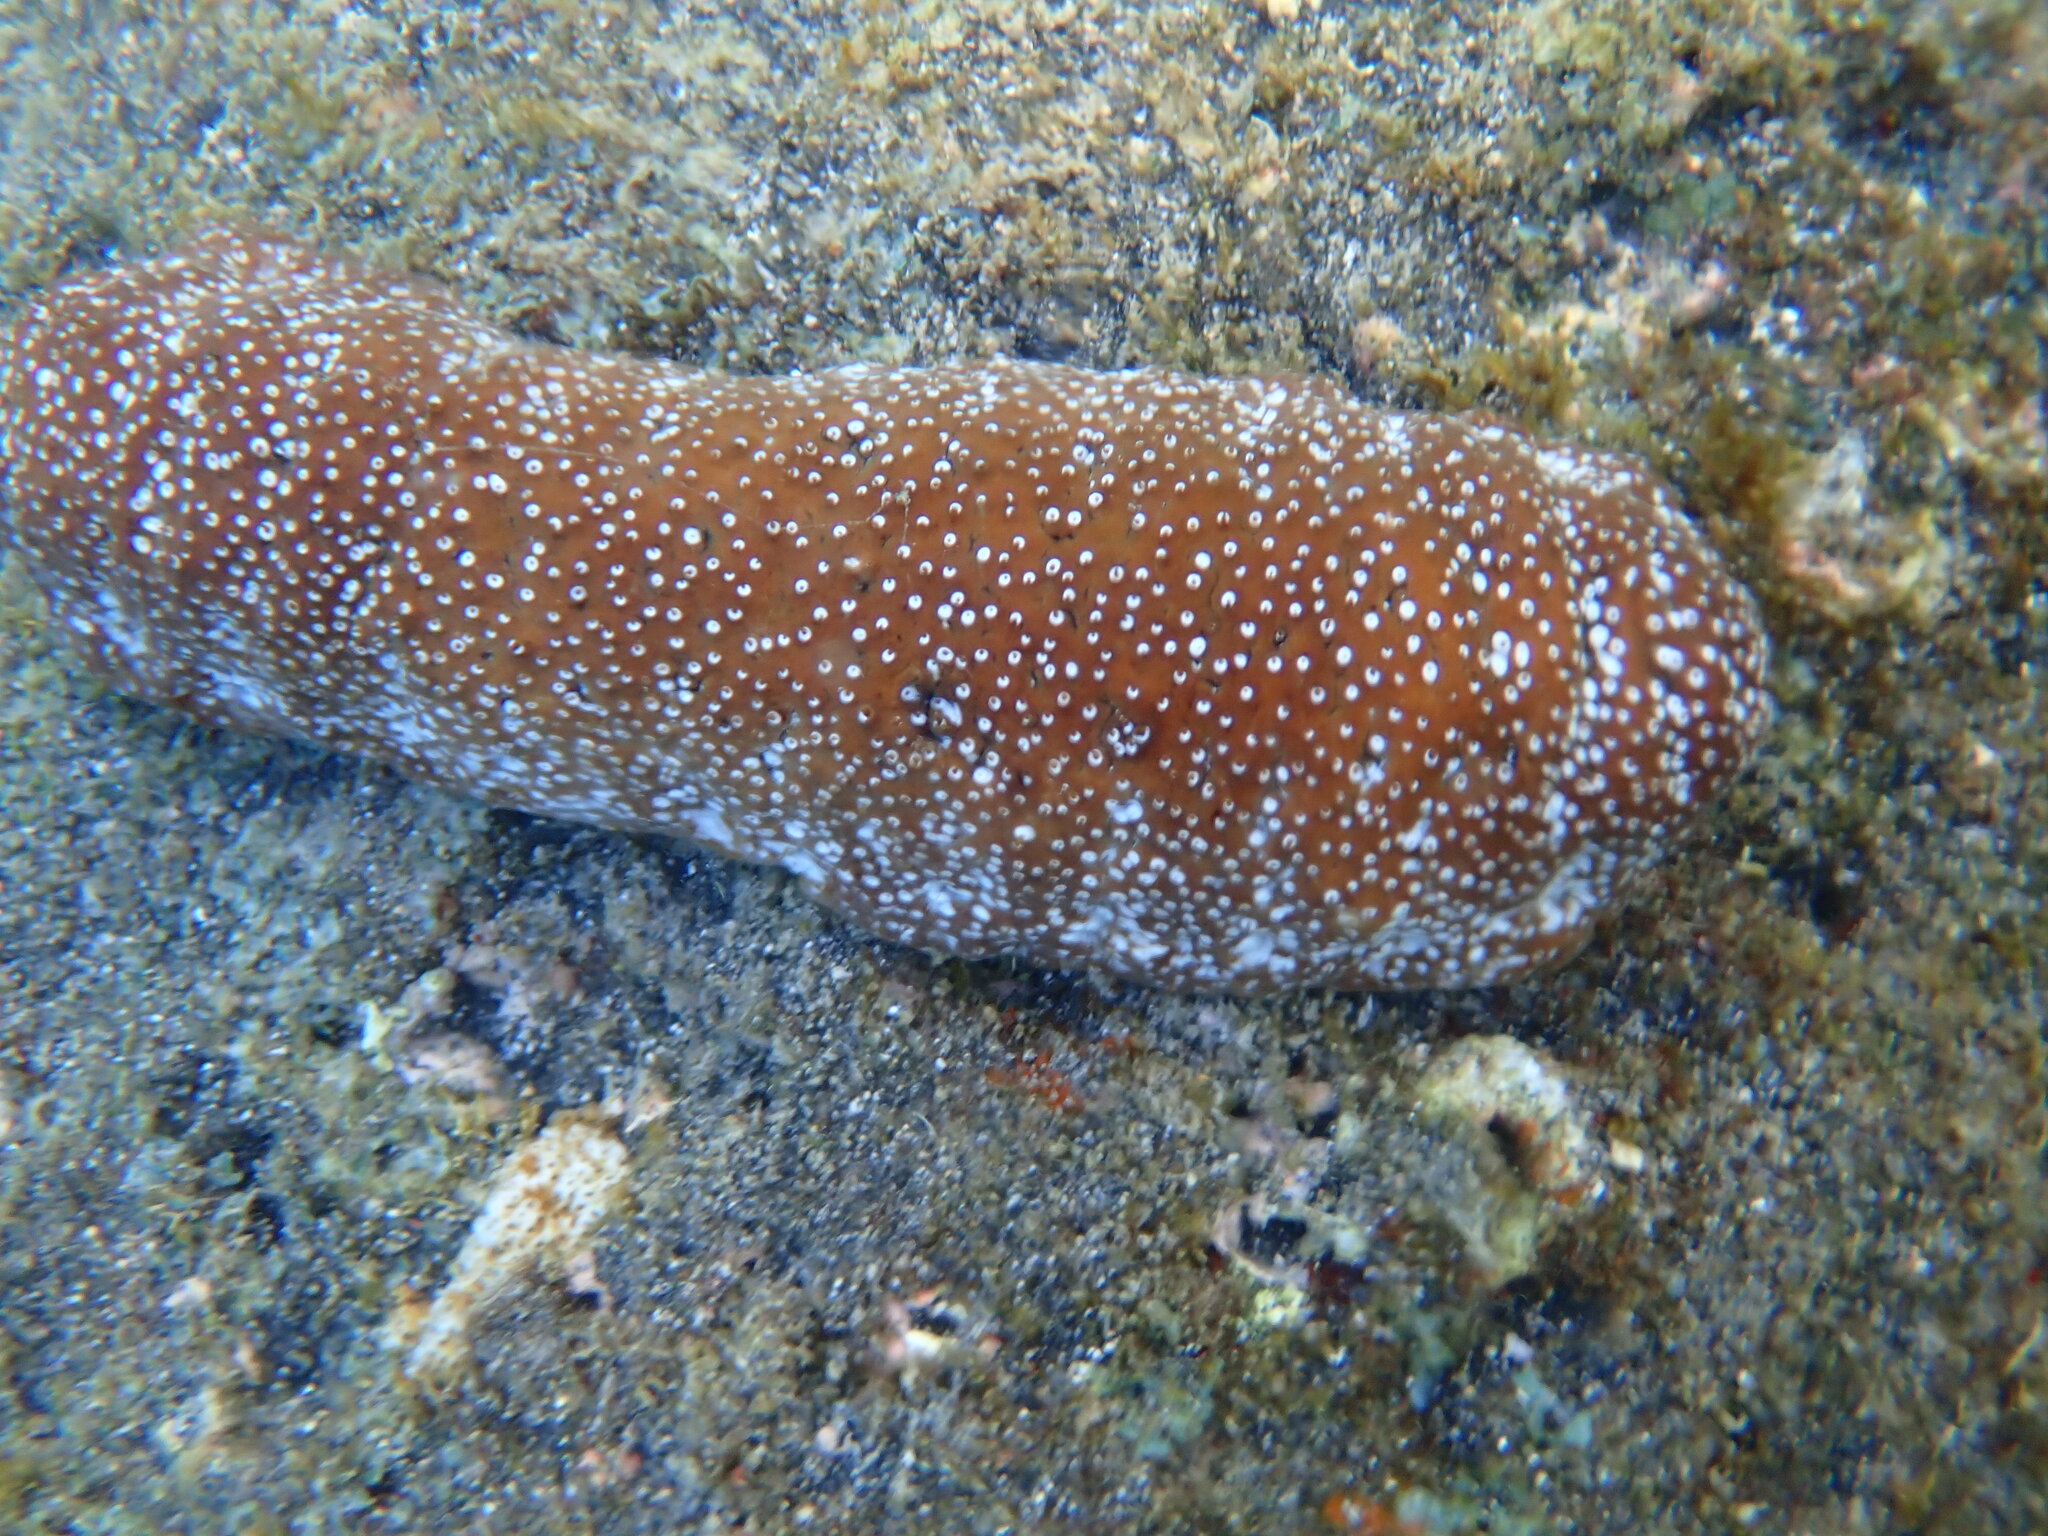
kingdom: Animalia
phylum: Echinodermata
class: Holothuroidea
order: Holothuriida
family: Holothuriidae
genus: Actinopyga
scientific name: Actinopyga varians
